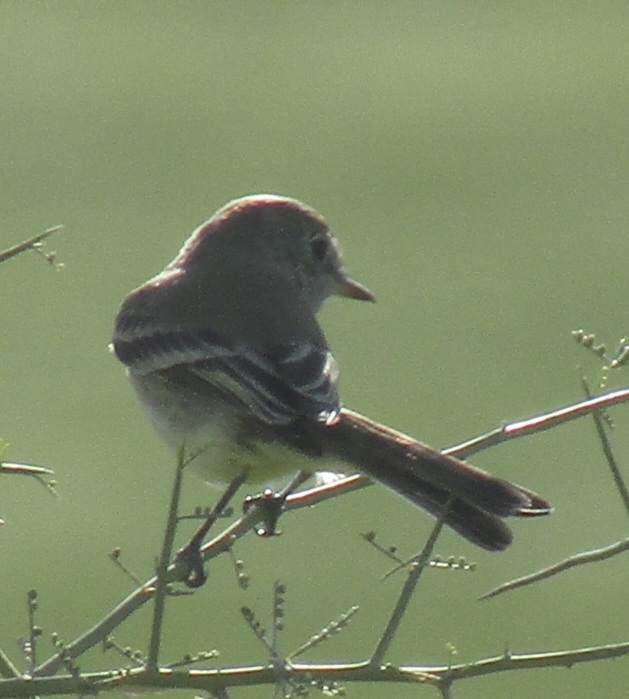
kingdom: Animalia
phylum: Chordata
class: Aves
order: Passeriformes
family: Tyrannidae
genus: Empidonax
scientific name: Empidonax wrightii
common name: Gray flycatcher
